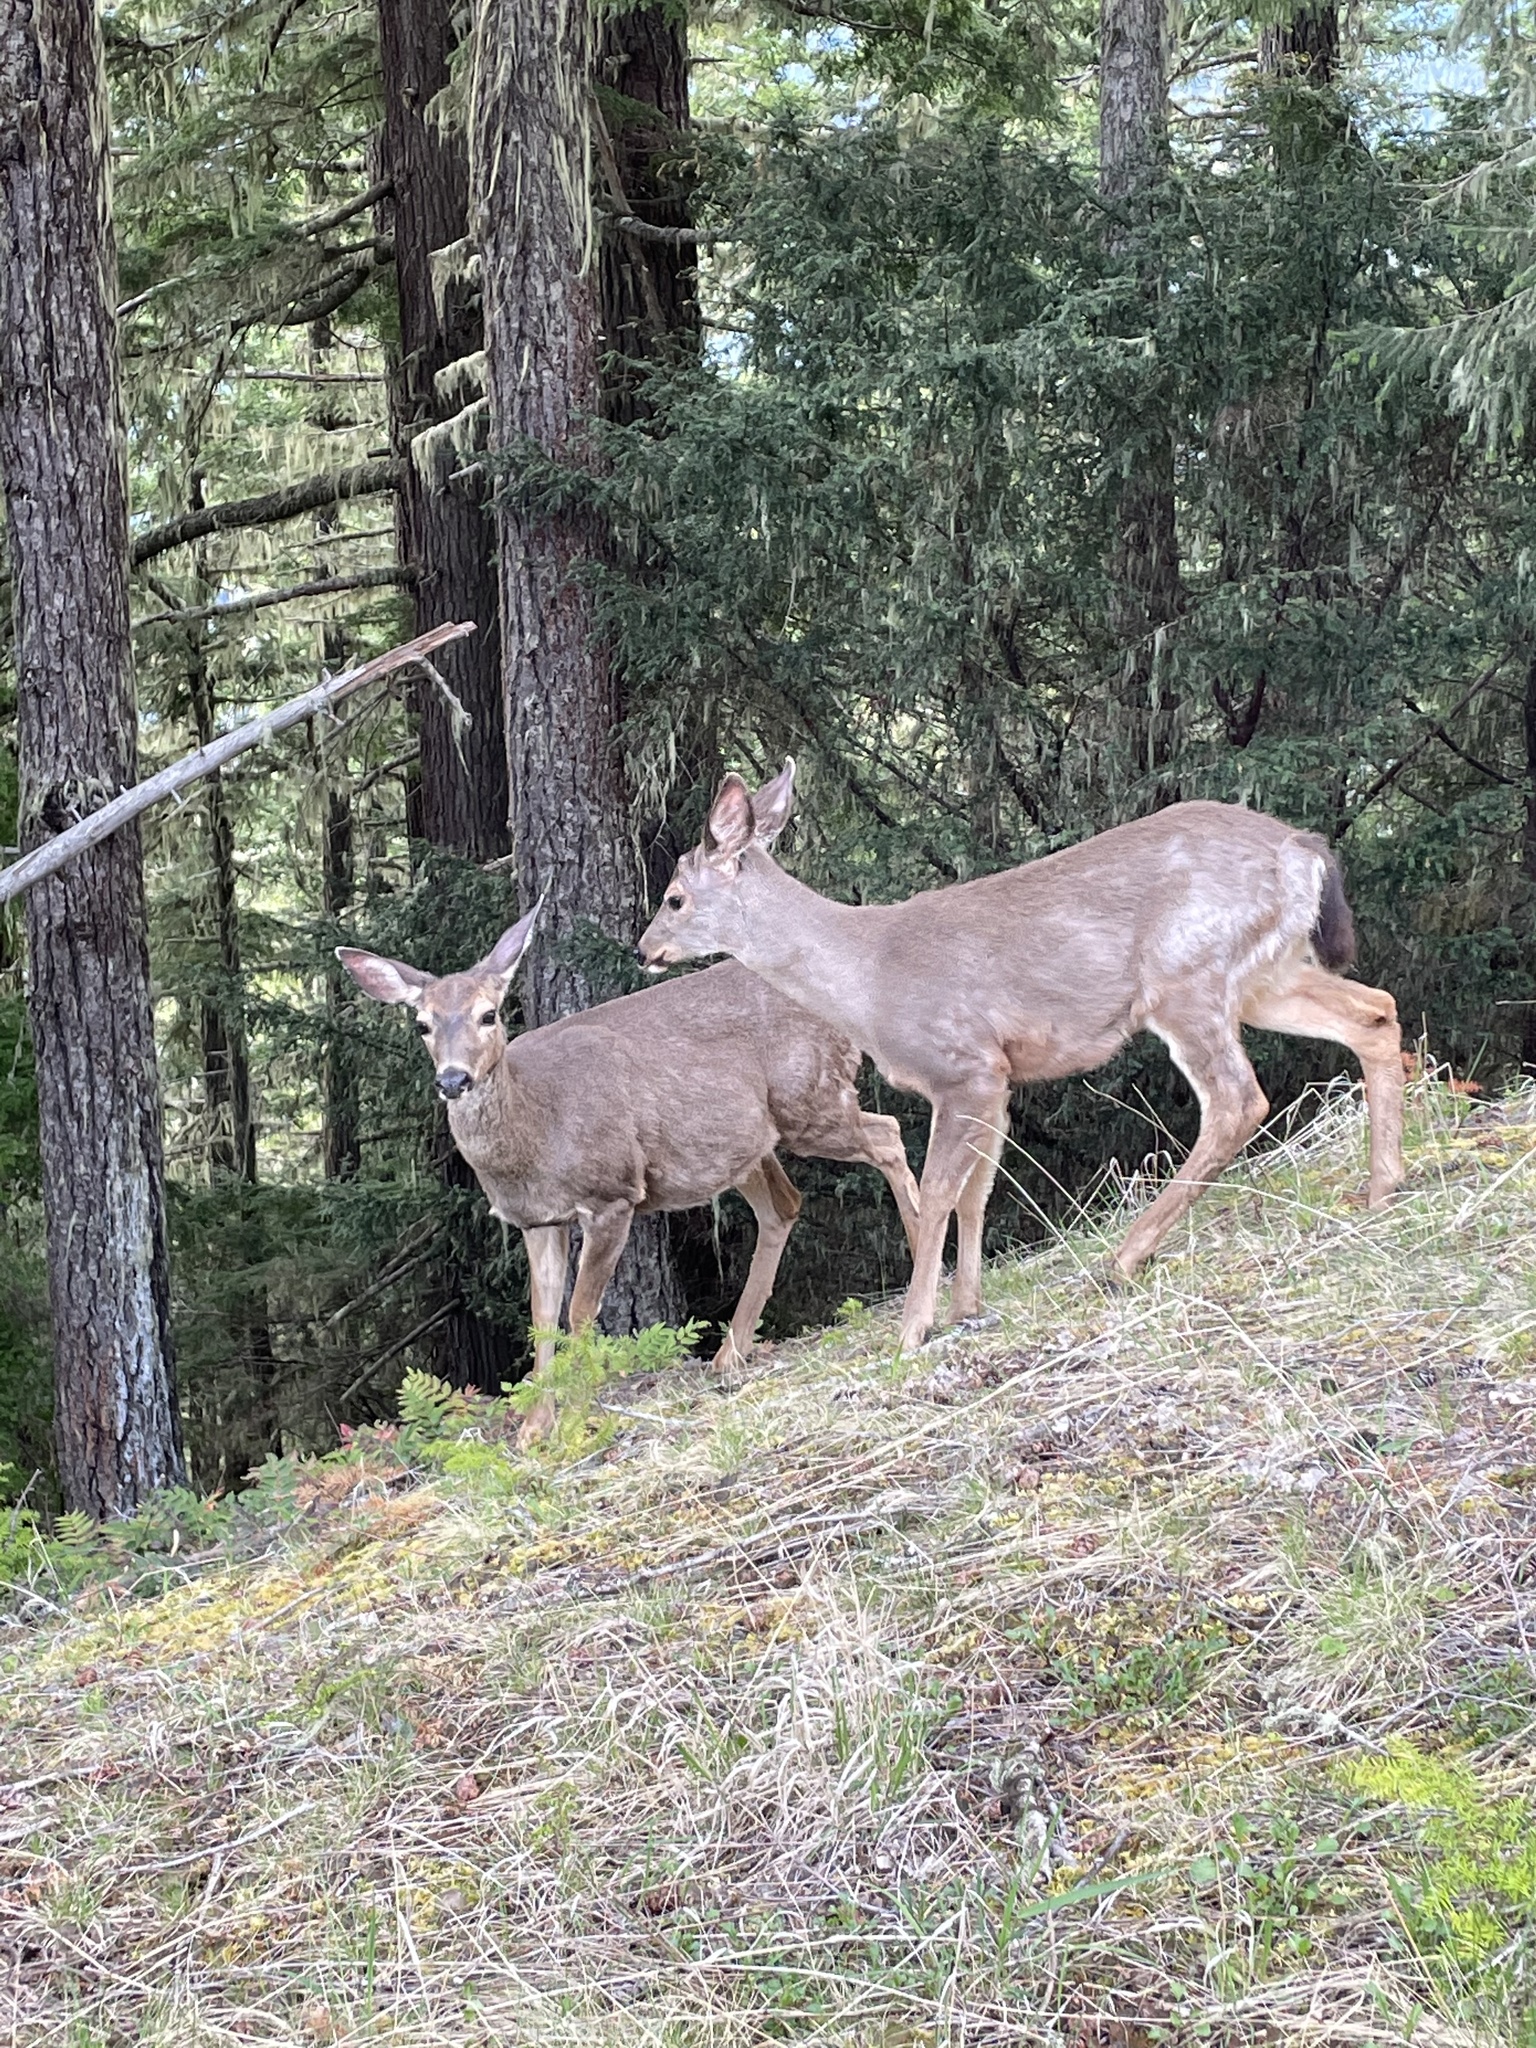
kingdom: Animalia
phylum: Chordata
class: Mammalia
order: Artiodactyla
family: Cervidae
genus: Odocoileus
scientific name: Odocoileus hemionus
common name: Mule deer
